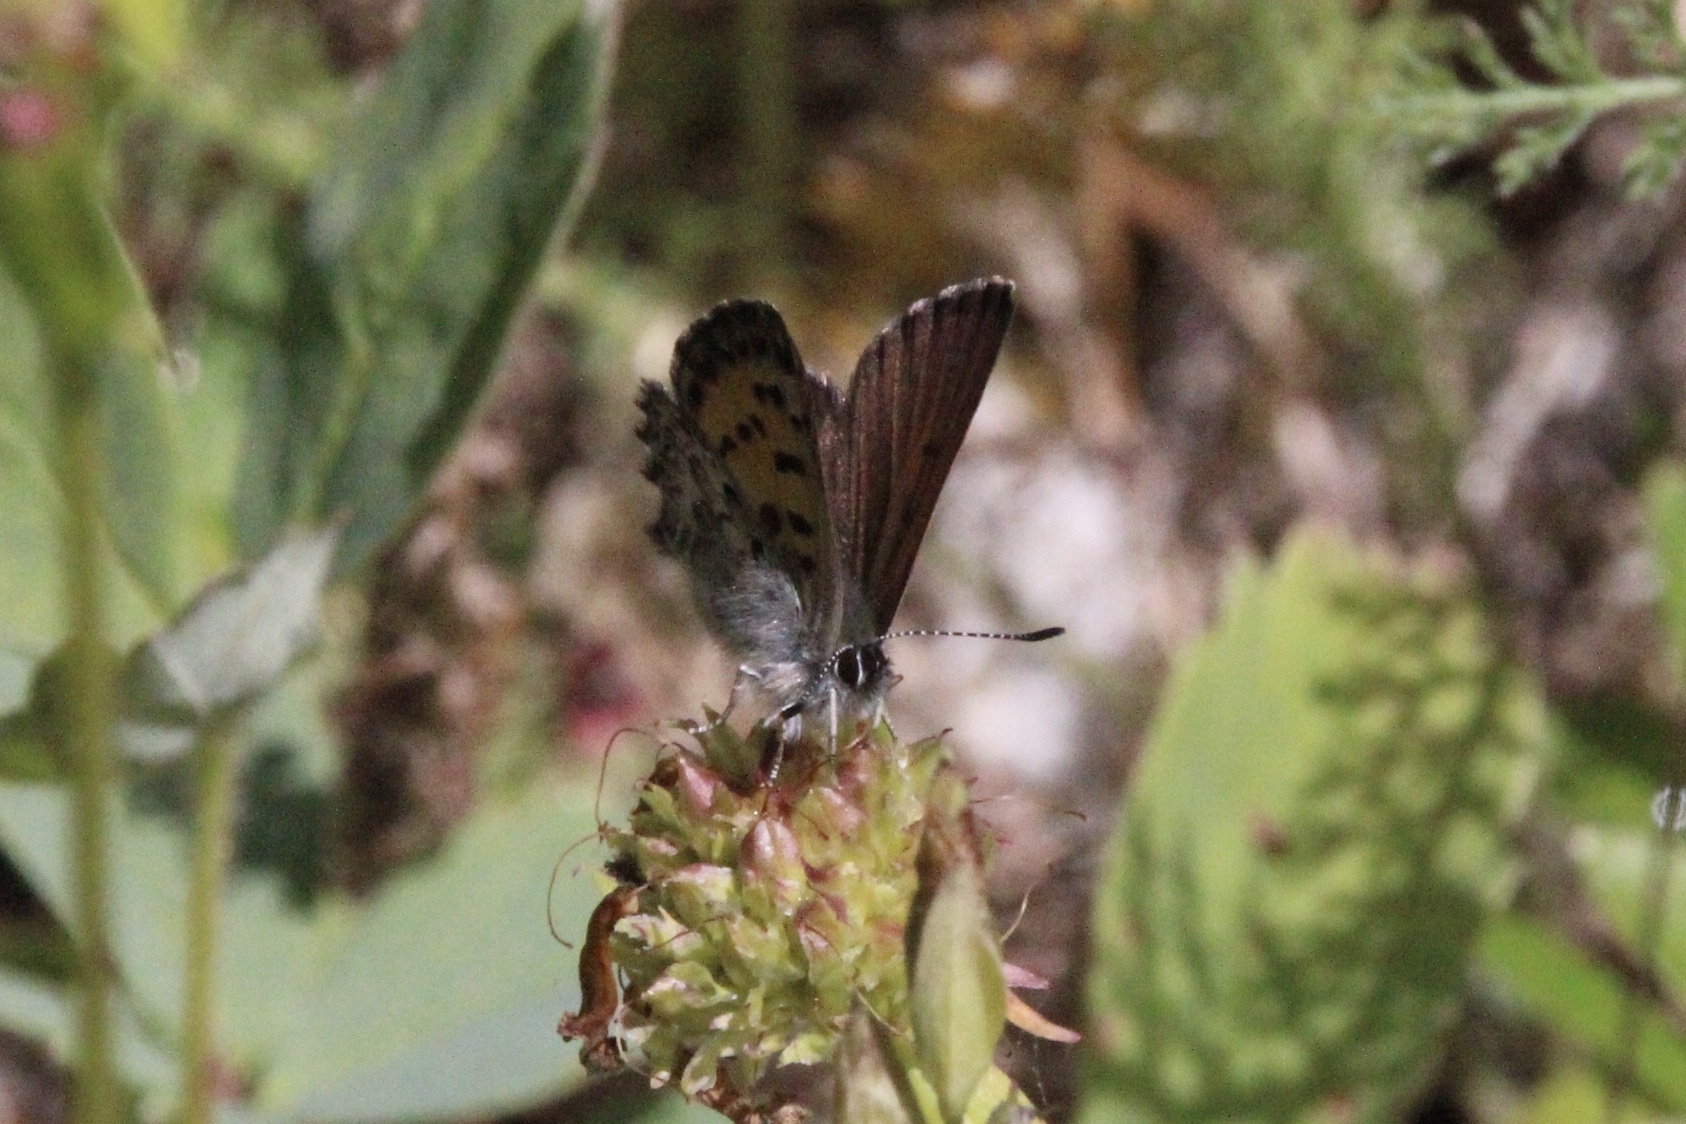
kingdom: Animalia
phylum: Arthropoda
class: Insecta
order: Lepidoptera
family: Lycaenidae
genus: Tharsalea
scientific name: Tharsalea mariposa
